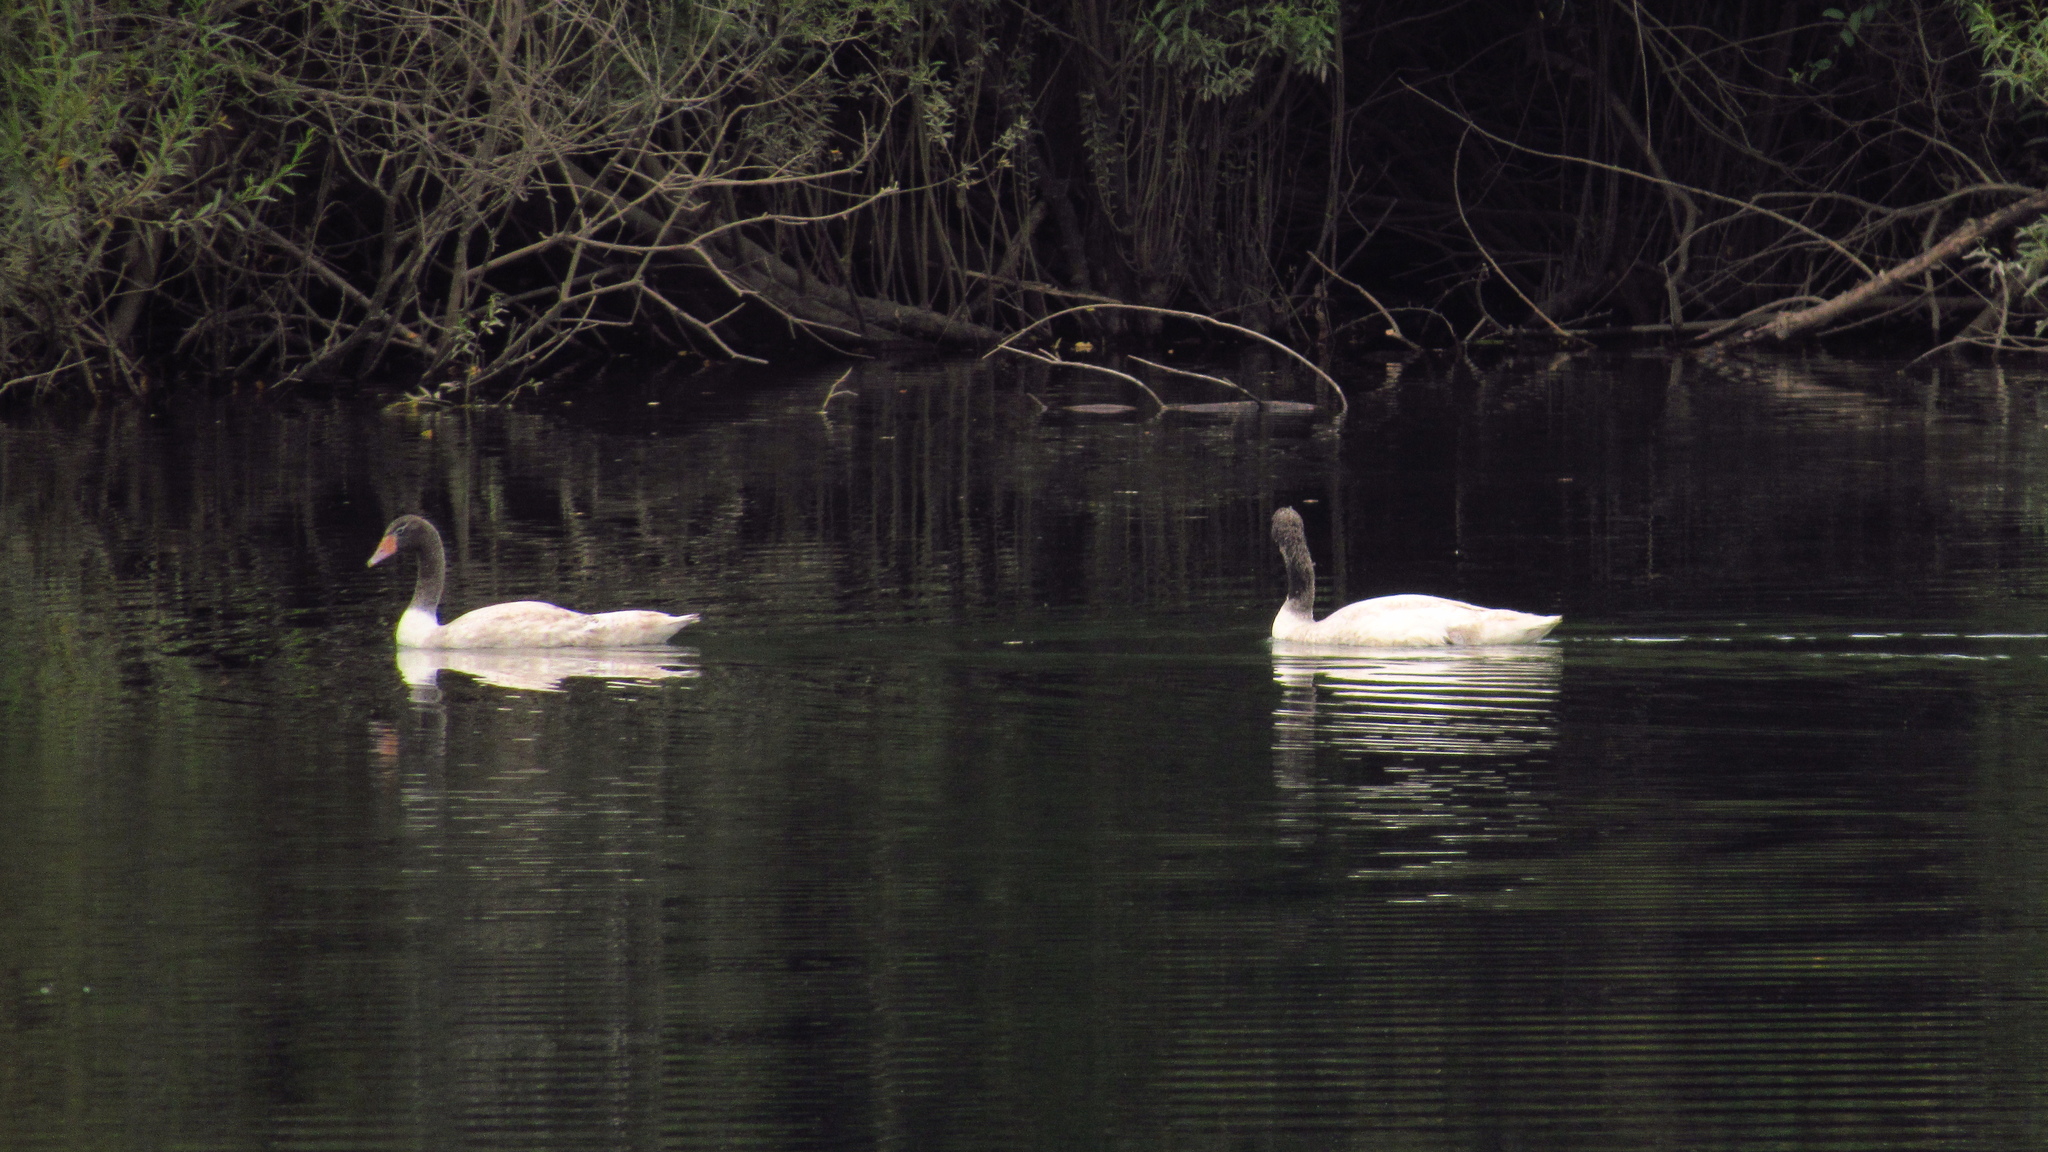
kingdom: Animalia
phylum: Chordata
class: Aves
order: Anseriformes
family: Anatidae
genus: Cygnus
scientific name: Cygnus melancoryphus
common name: Black-necked swan
